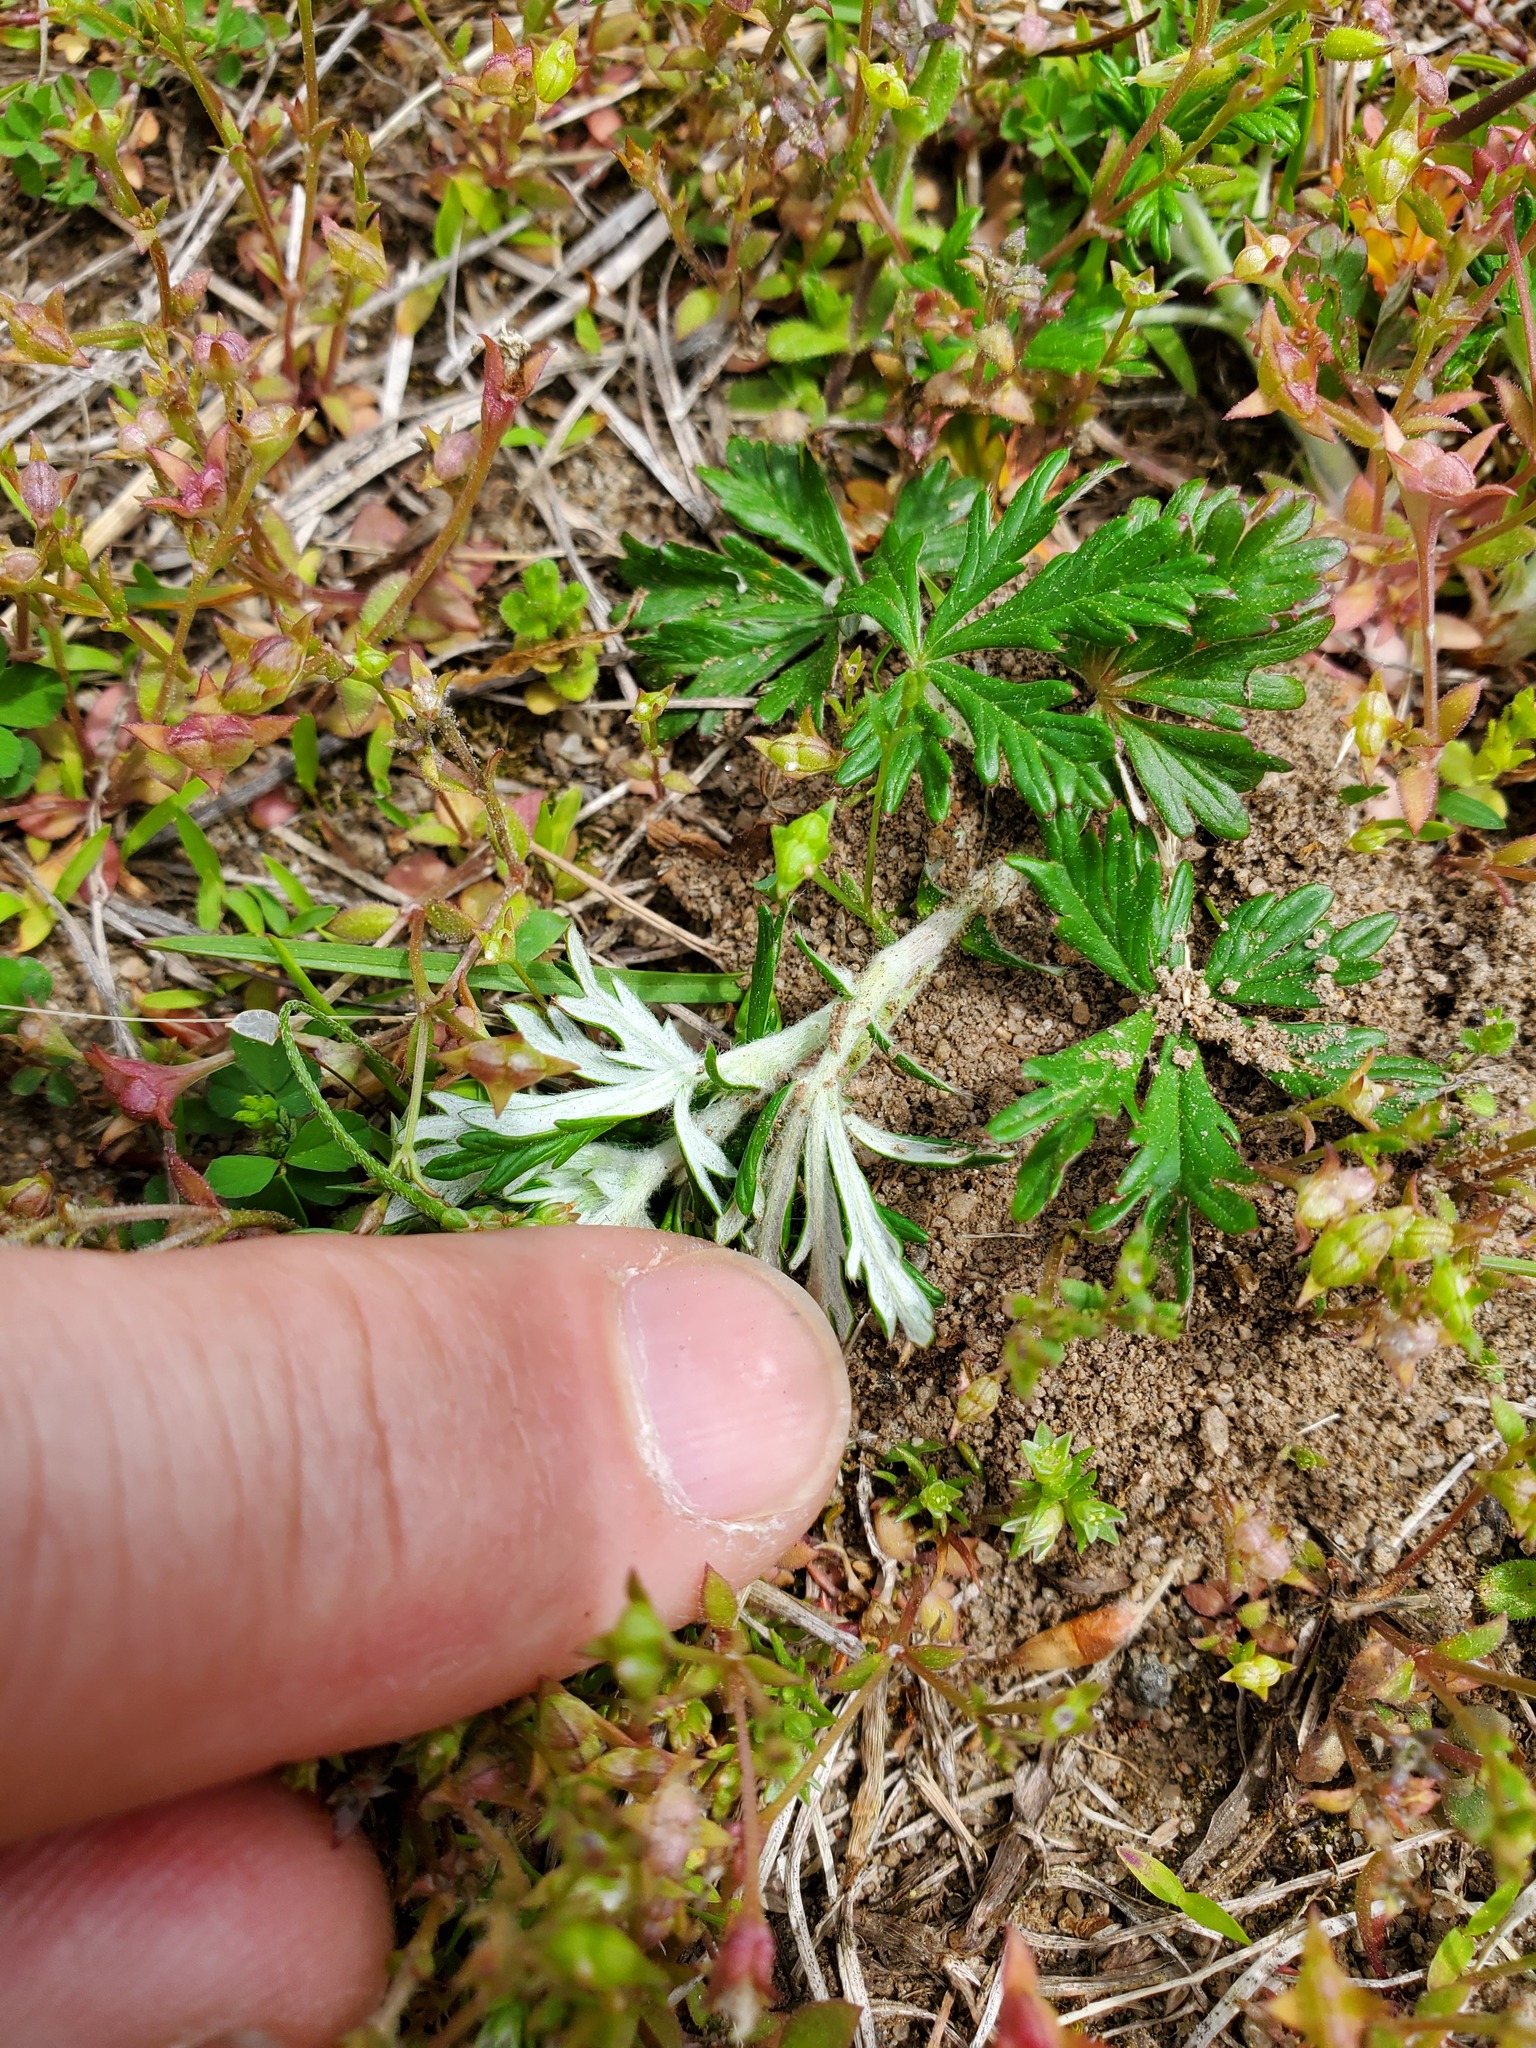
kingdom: Plantae
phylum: Tracheophyta
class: Magnoliopsida
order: Rosales
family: Rosaceae
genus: Potentilla
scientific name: Potentilla argentea
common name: Hoary cinquefoil
